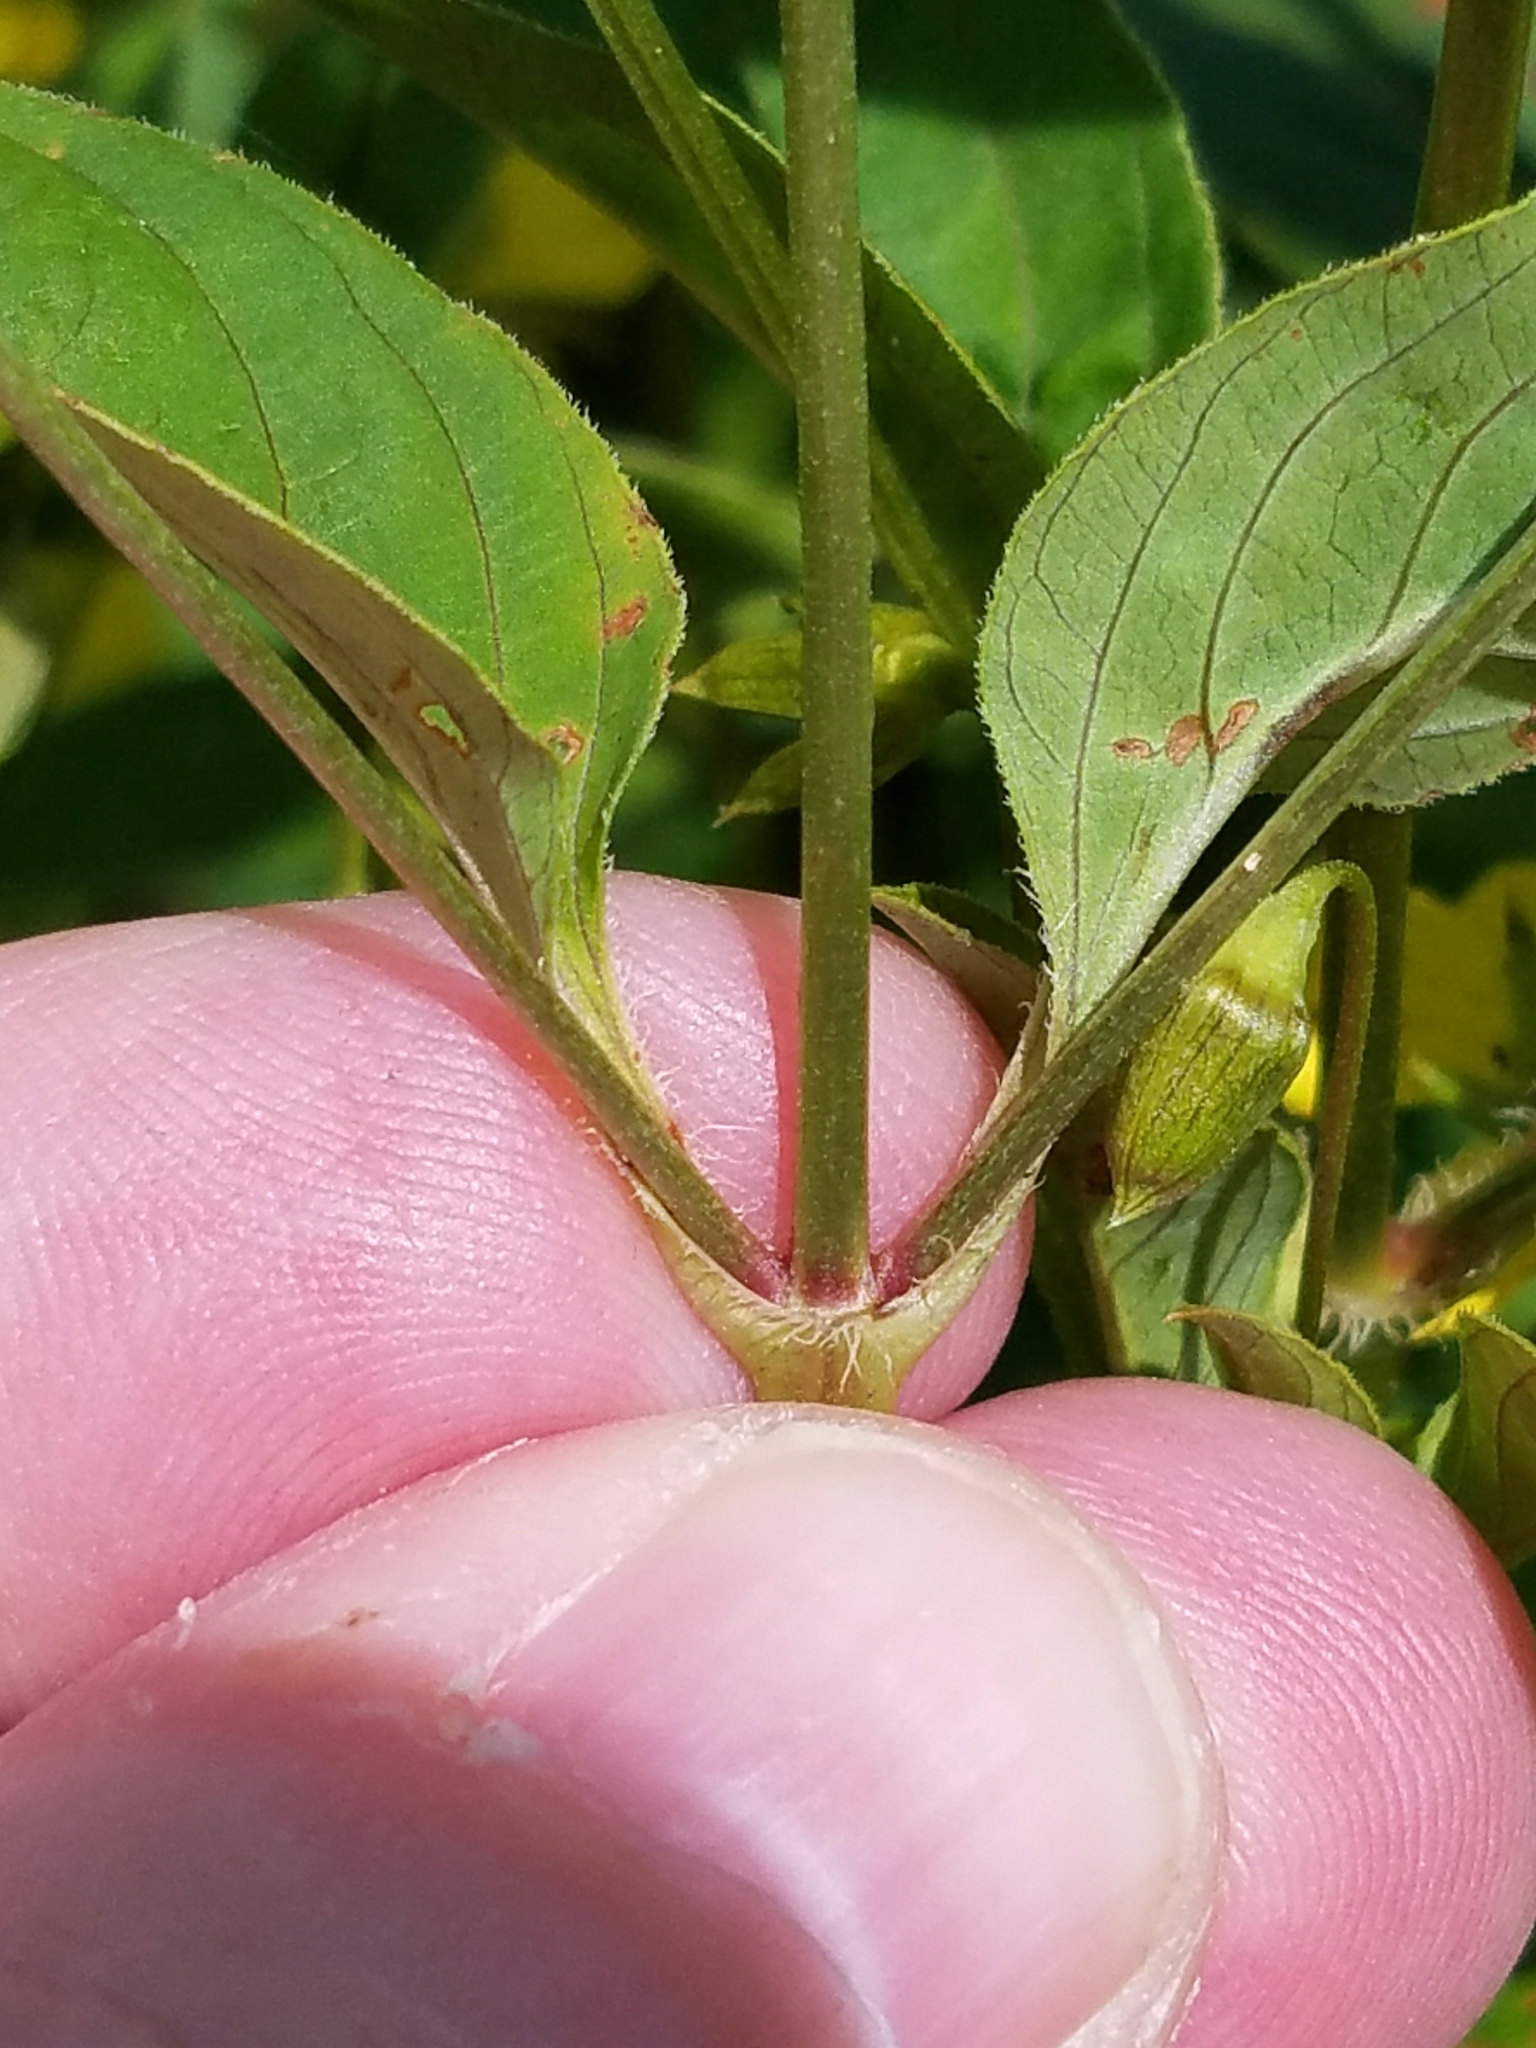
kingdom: Plantae
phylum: Tracheophyta
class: Magnoliopsida
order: Ericales
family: Primulaceae
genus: Lysimachia
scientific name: Lysimachia ciliata
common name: Fringed loosestrife
